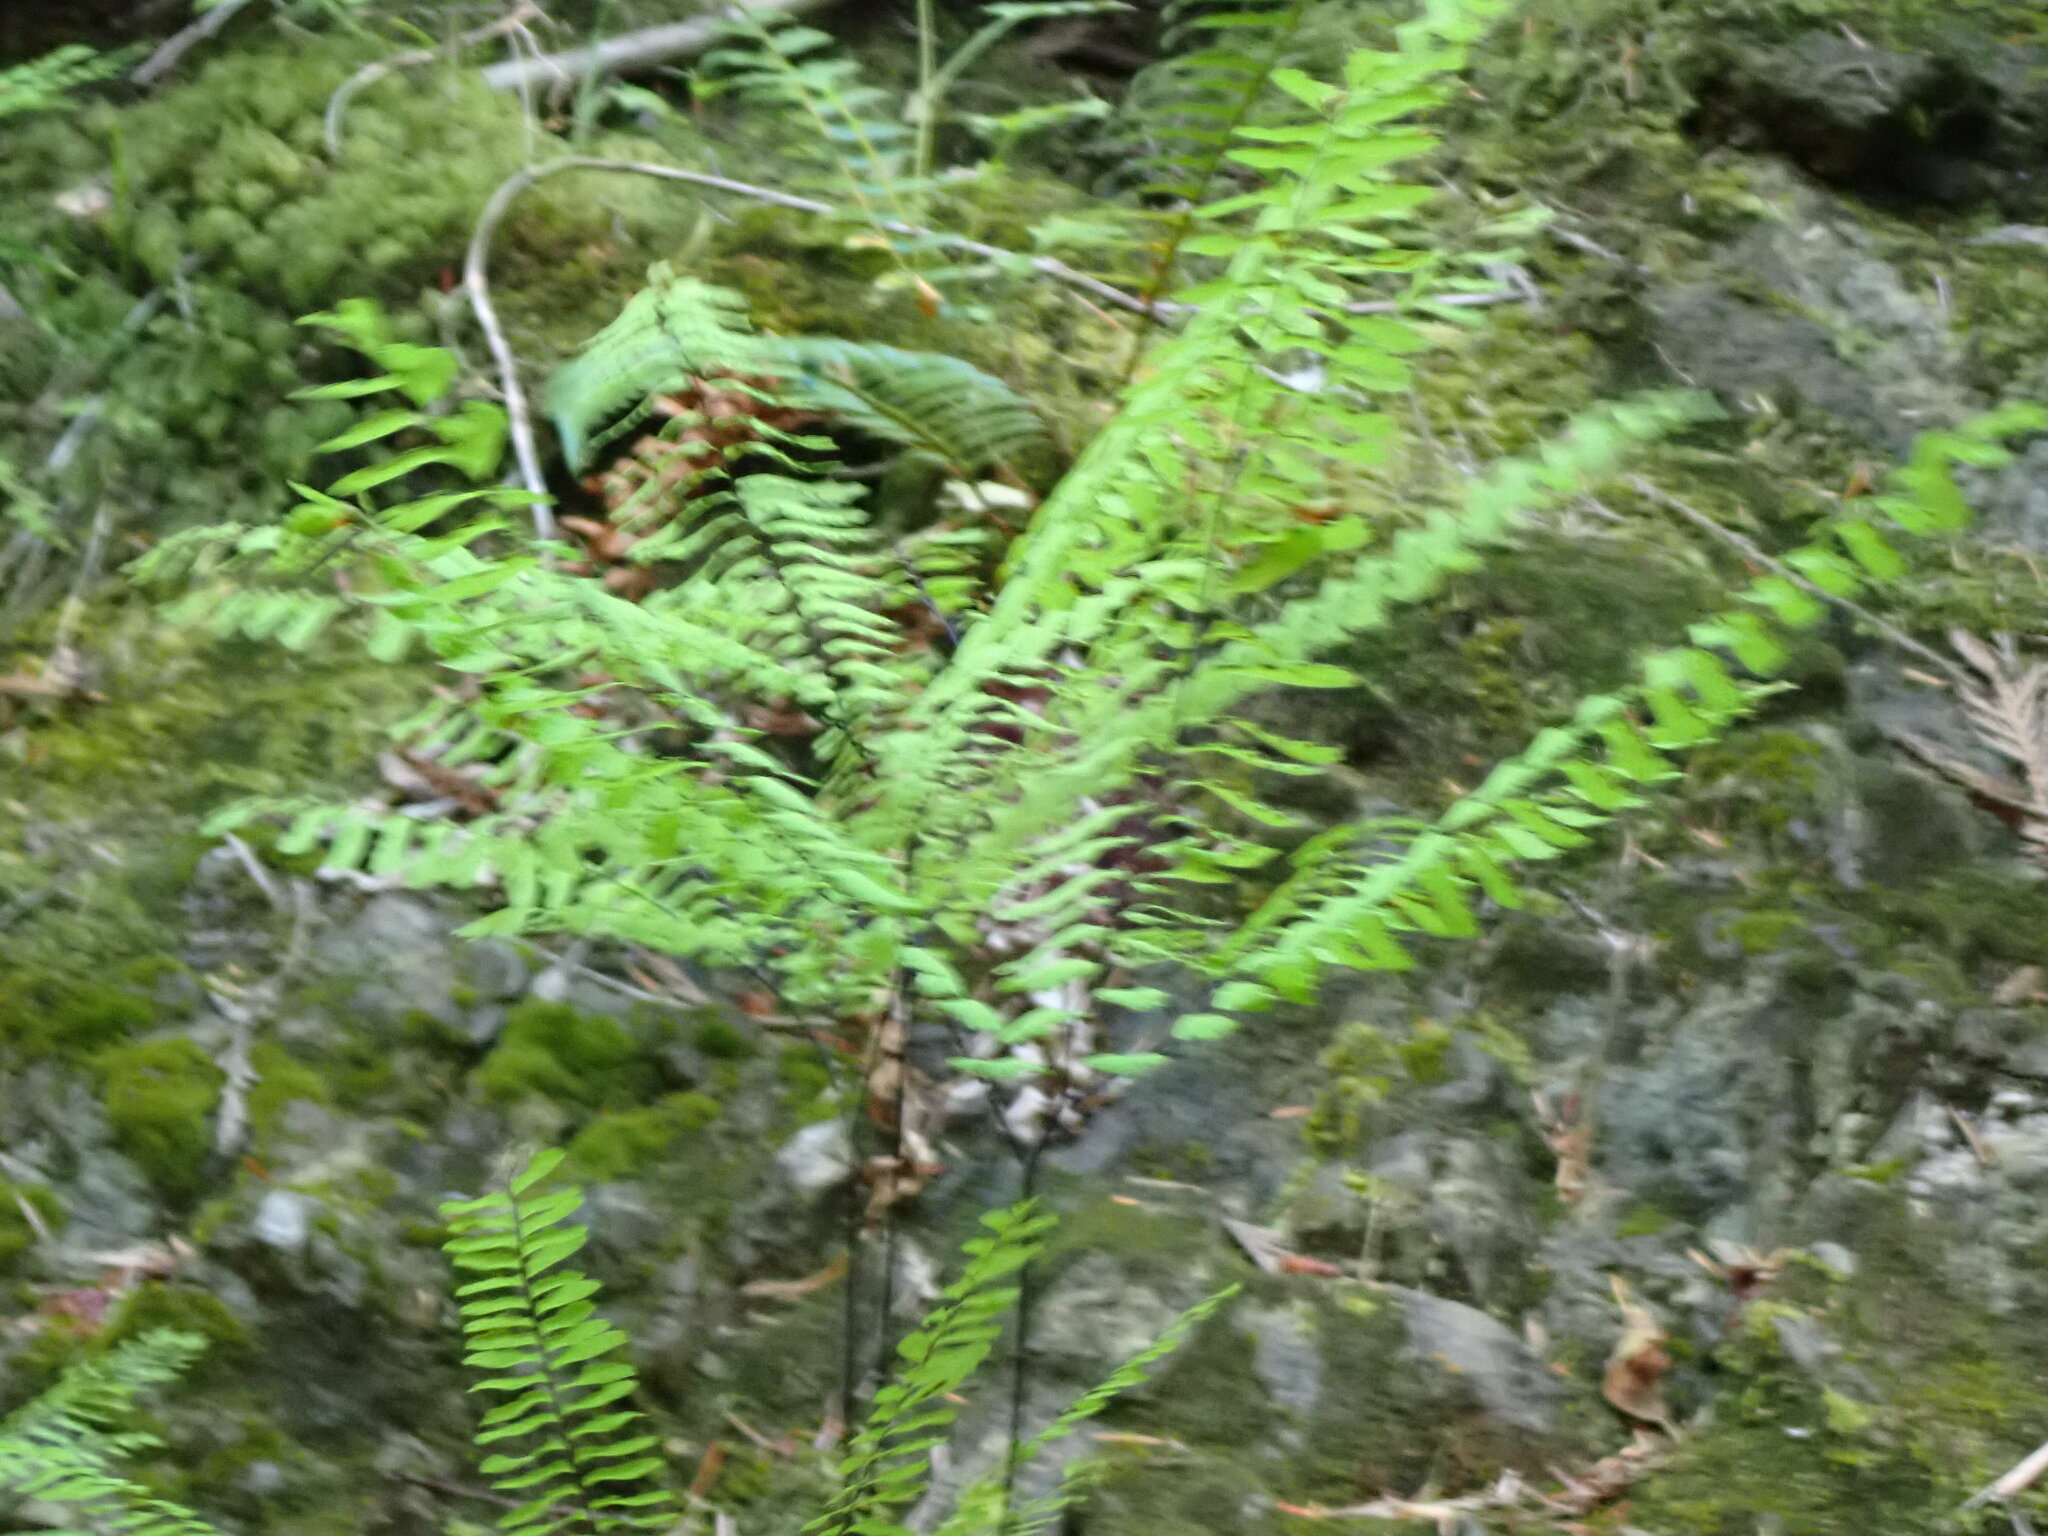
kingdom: Plantae
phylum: Tracheophyta
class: Polypodiopsida
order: Polypodiales
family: Pteridaceae
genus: Adiantum
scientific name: Adiantum aleuticum
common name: Aleutian maidenhair fern
